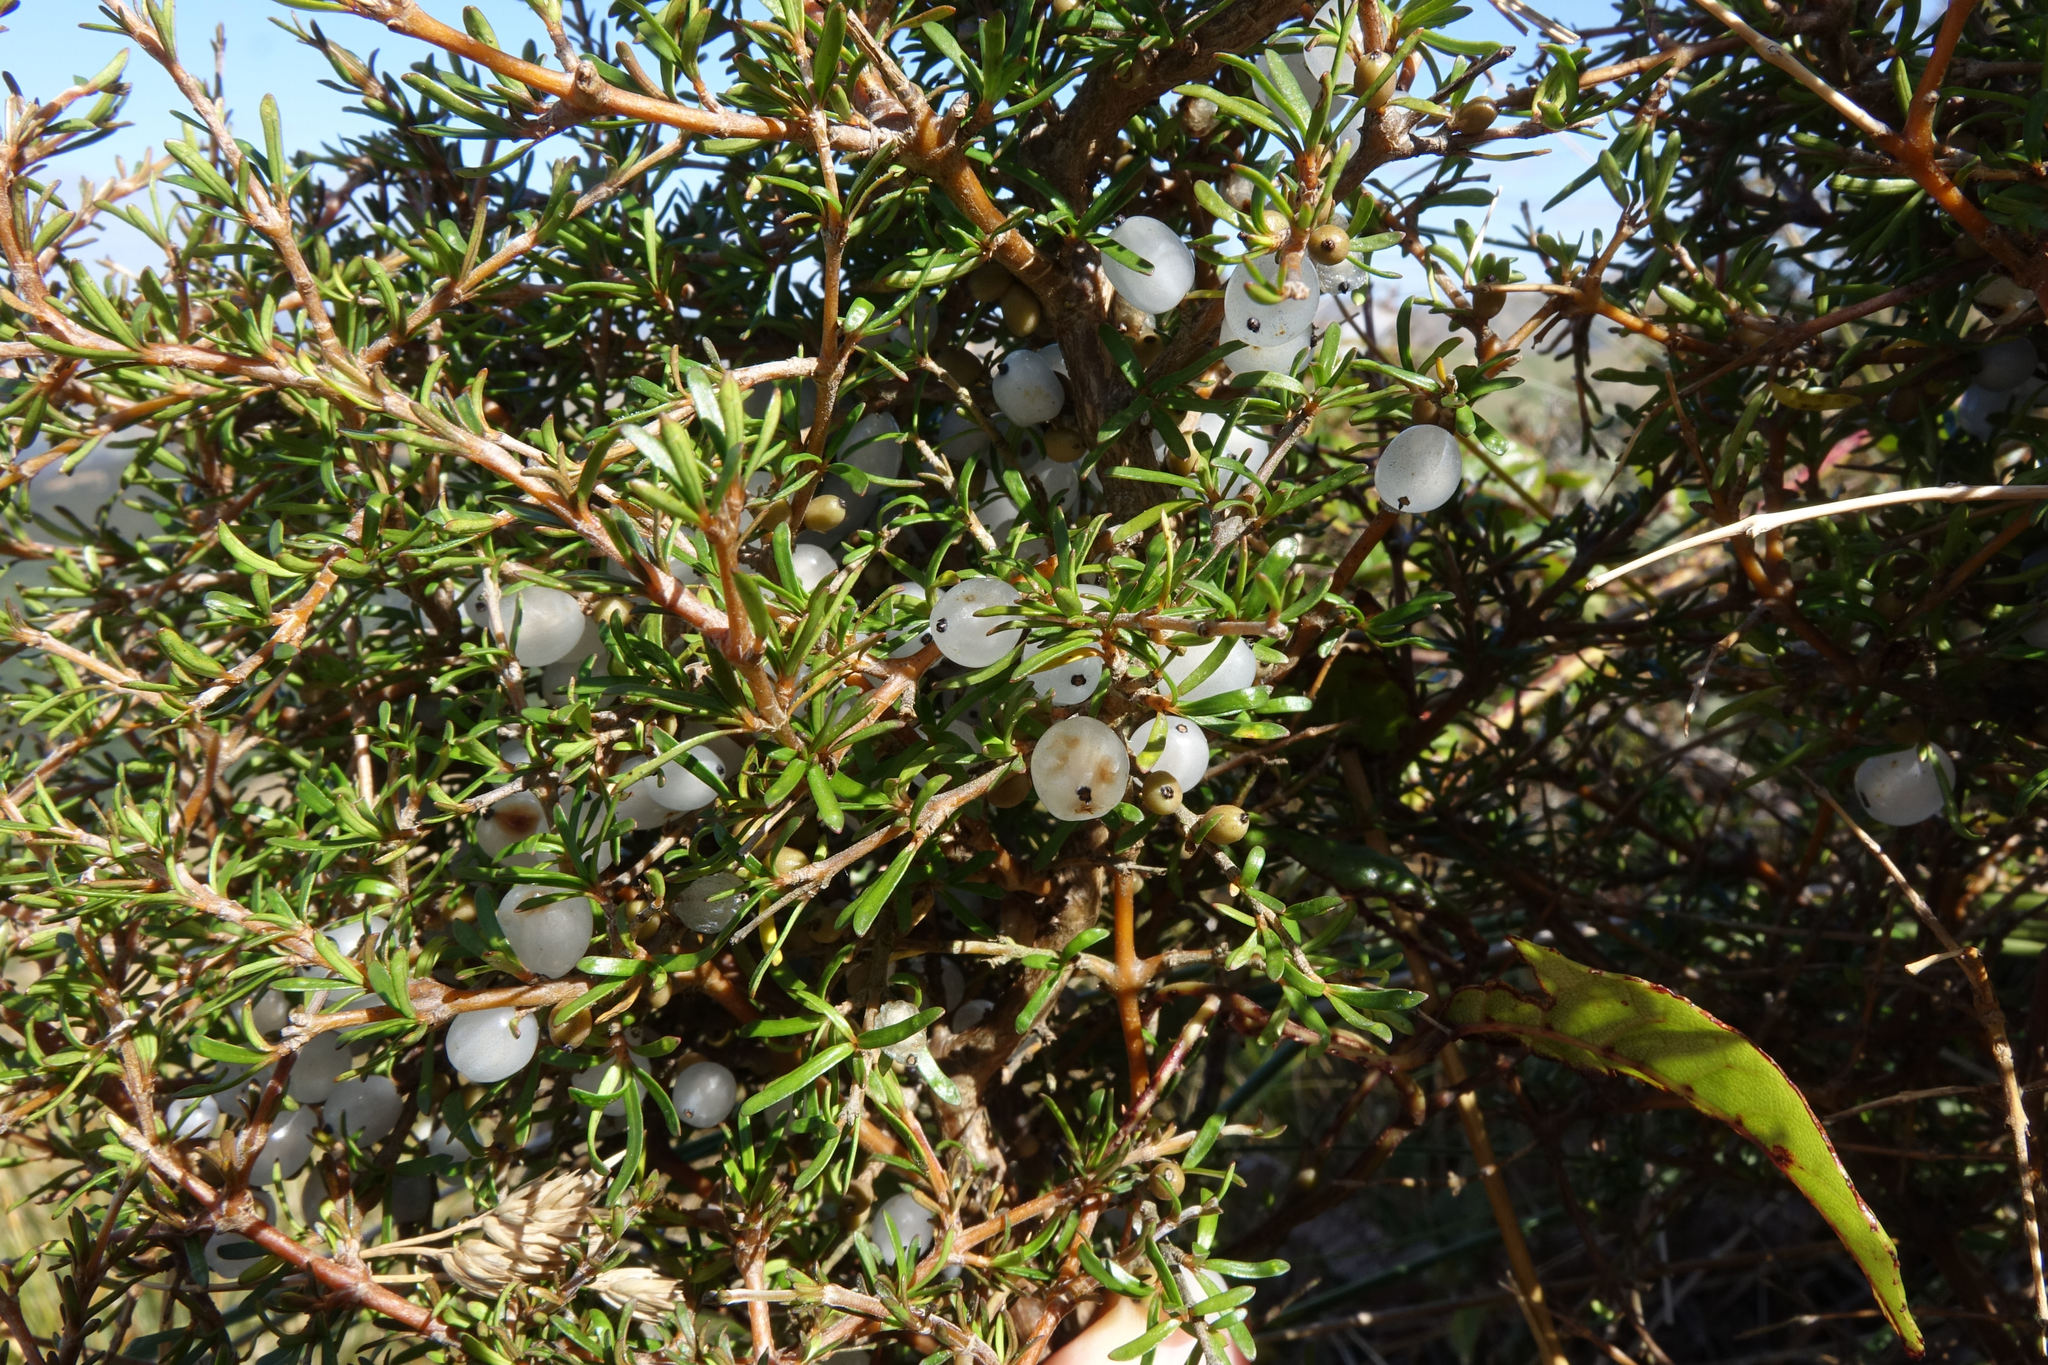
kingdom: Plantae
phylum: Tracheophyta
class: Magnoliopsida
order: Gentianales
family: Rubiaceae
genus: Coprosma
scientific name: Coprosma rugosa
